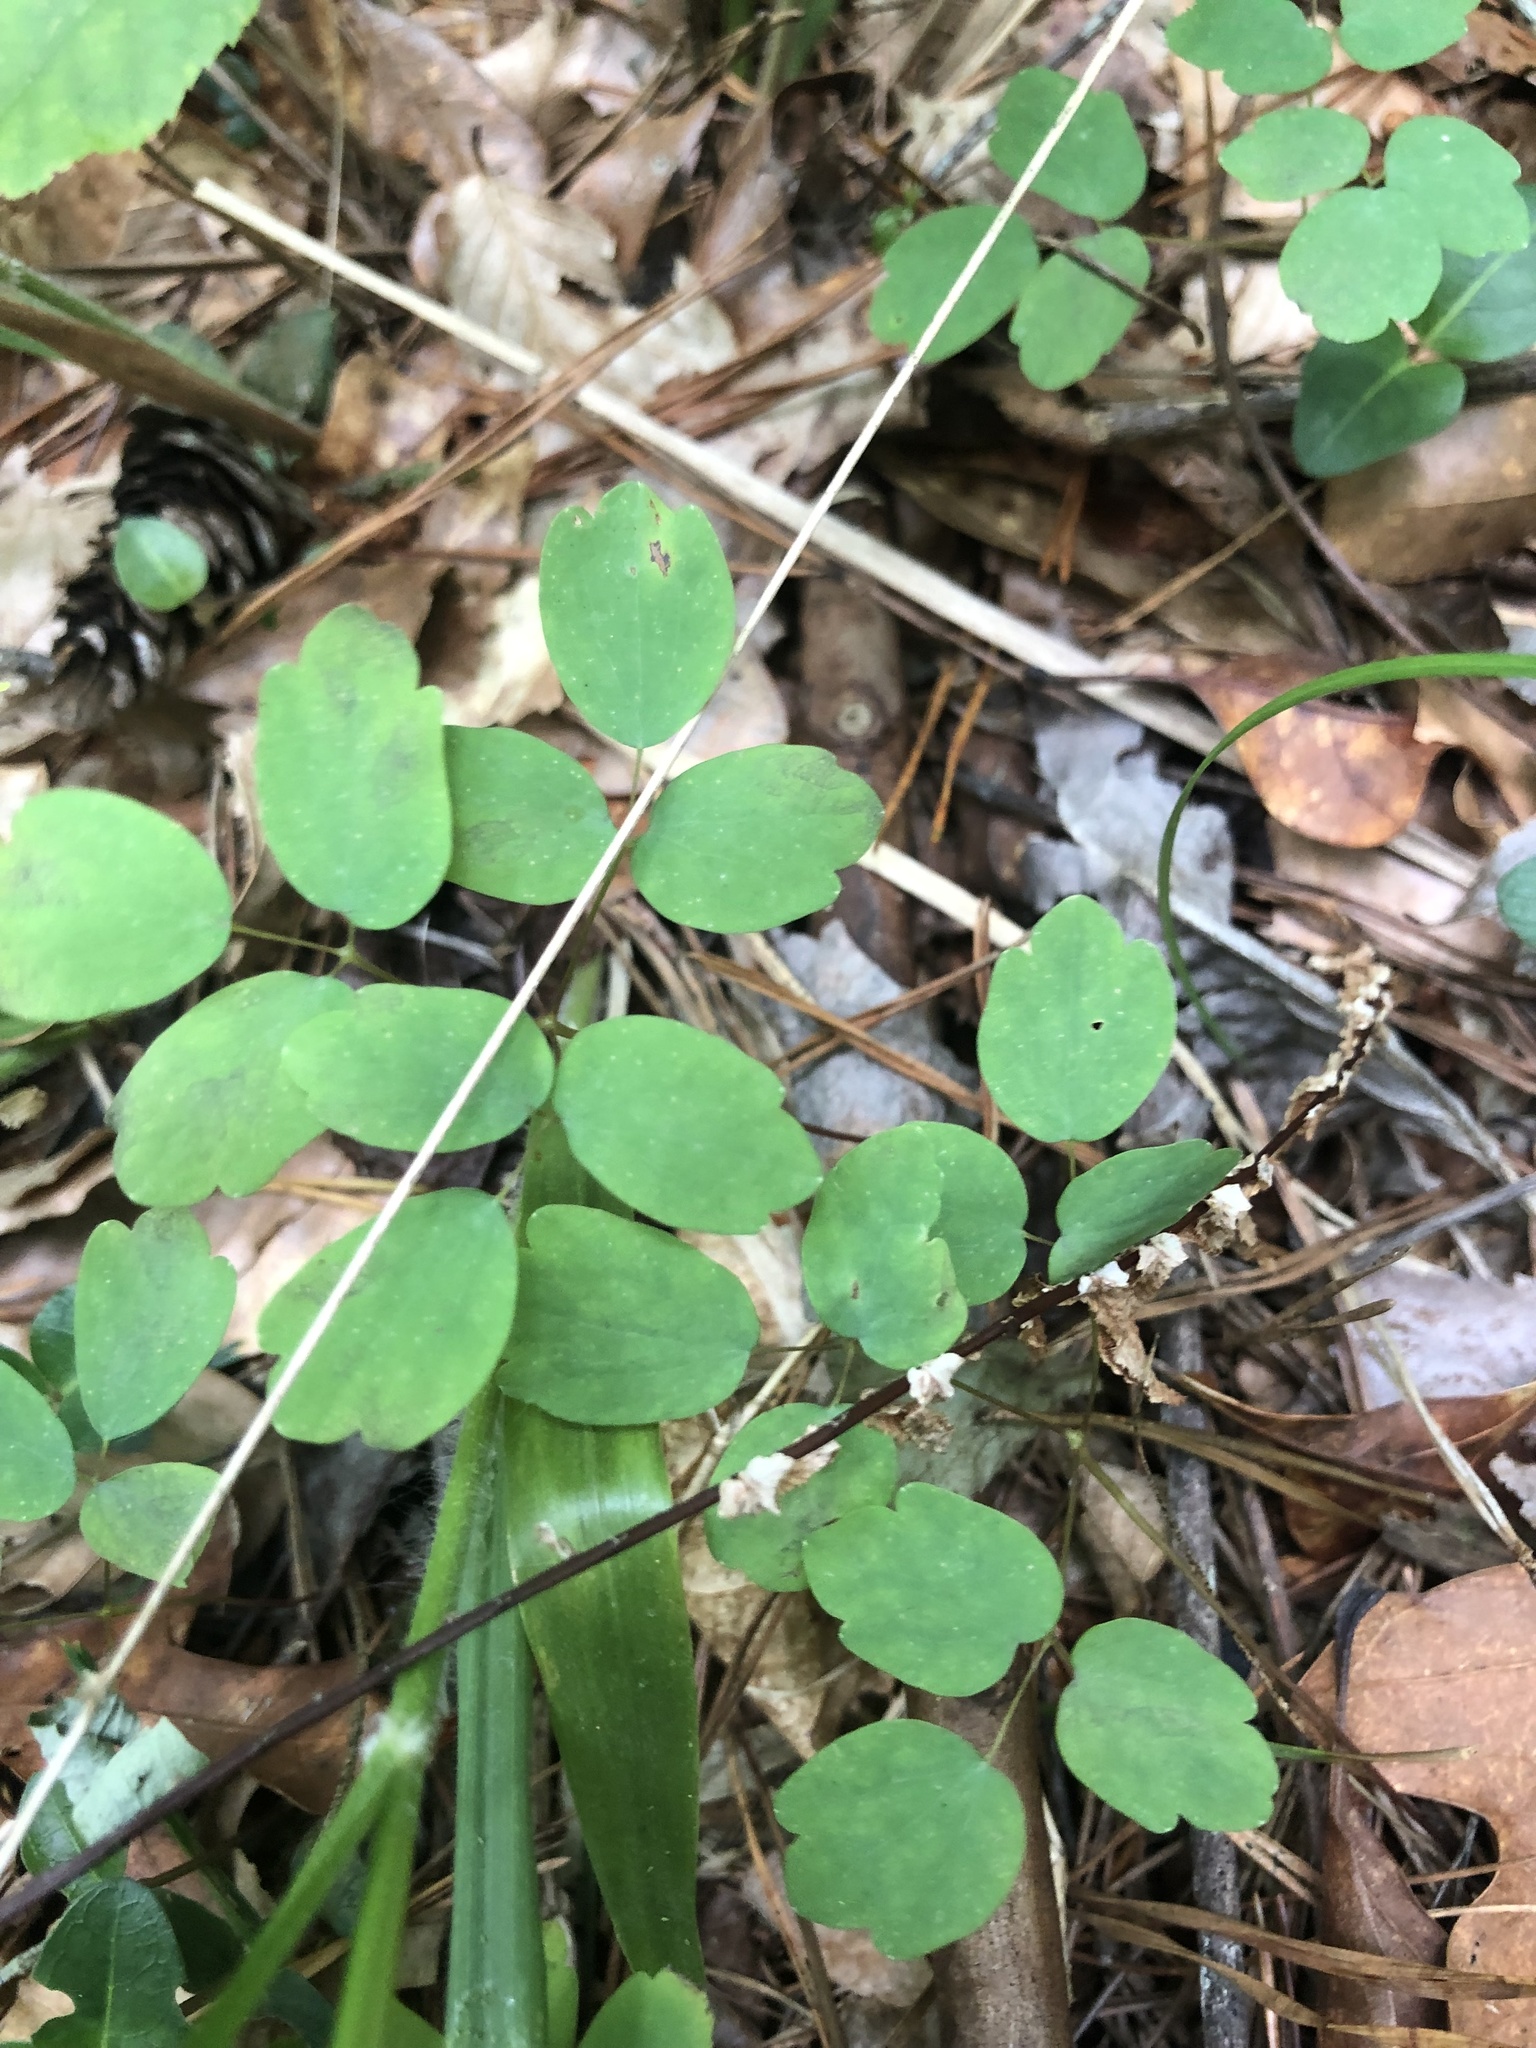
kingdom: Plantae
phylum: Tracheophyta
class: Magnoliopsida
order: Ranunculales
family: Ranunculaceae
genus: Thalictrum
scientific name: Thalictrum thalictroides
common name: Rue-anemone
